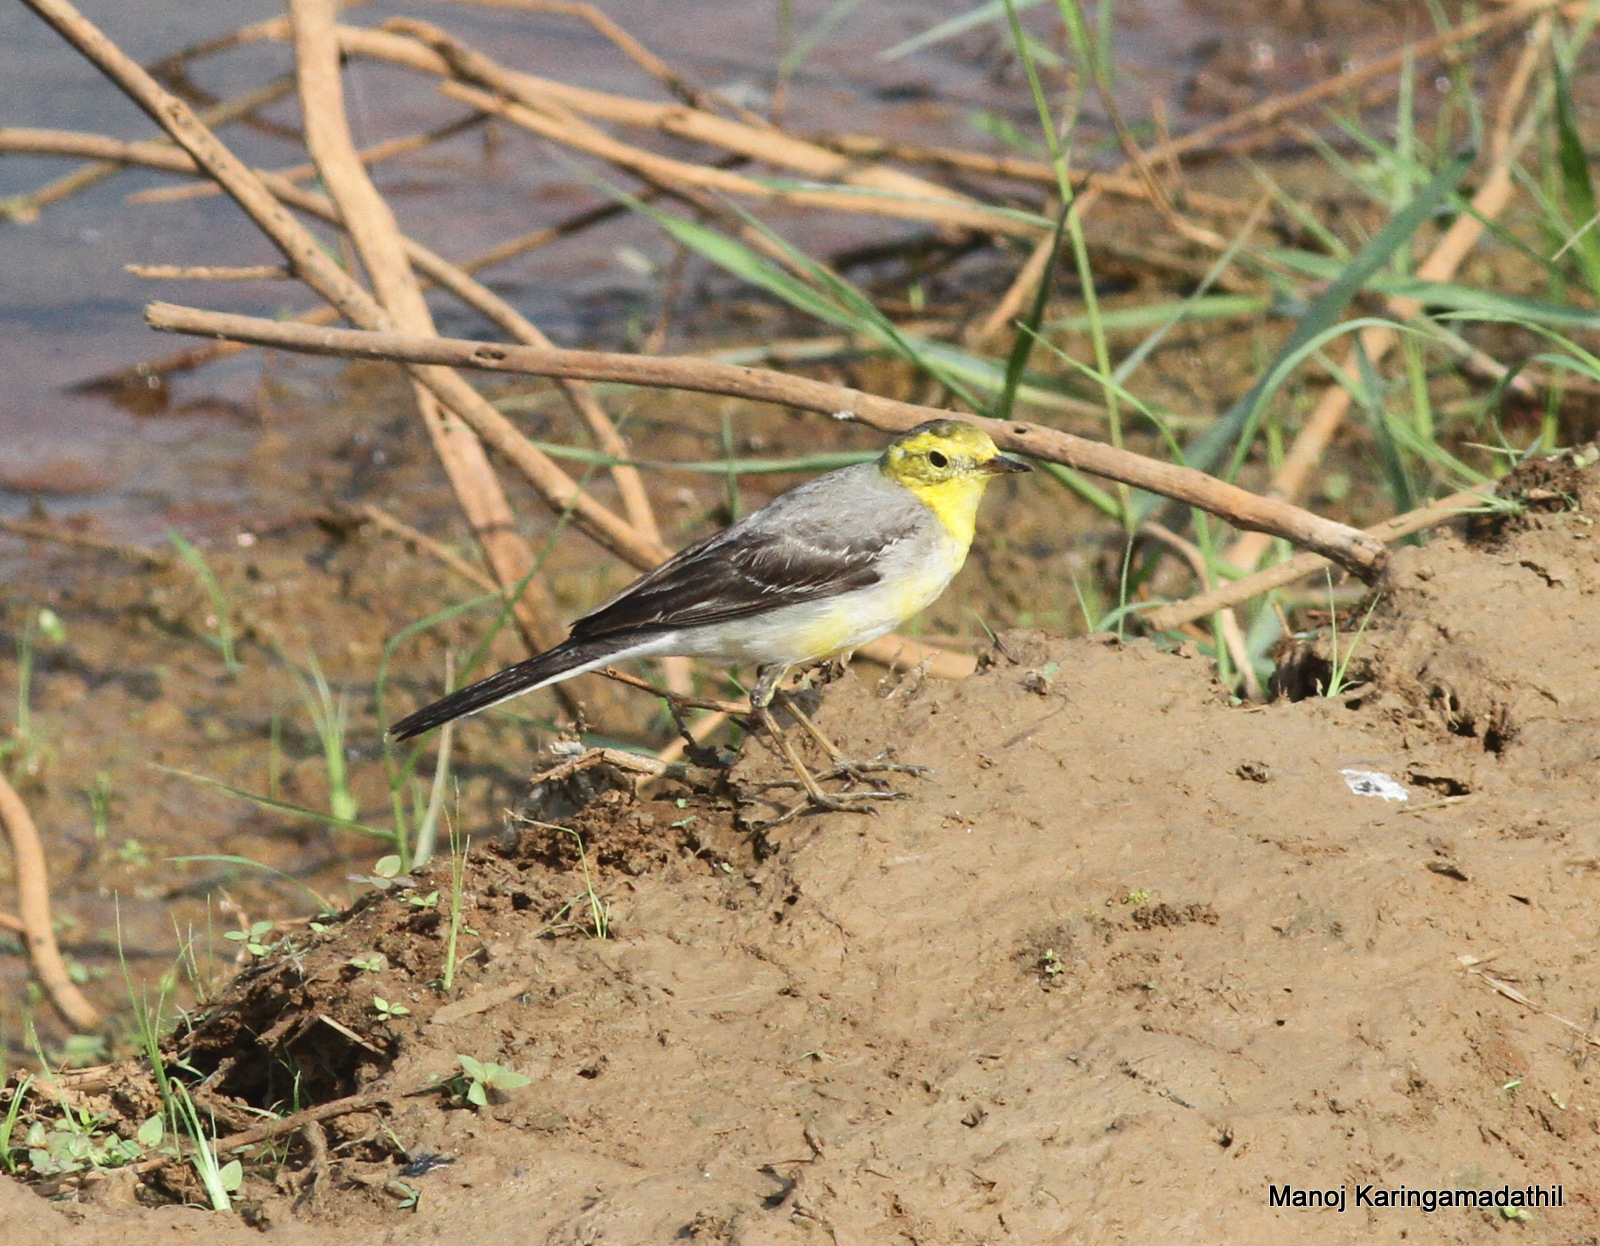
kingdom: Animalia
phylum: Chordata
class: Aves
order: Passeriformes
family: Motacillidae
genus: Motacilla
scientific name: Motacilla citreola
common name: Citrine wagtail
